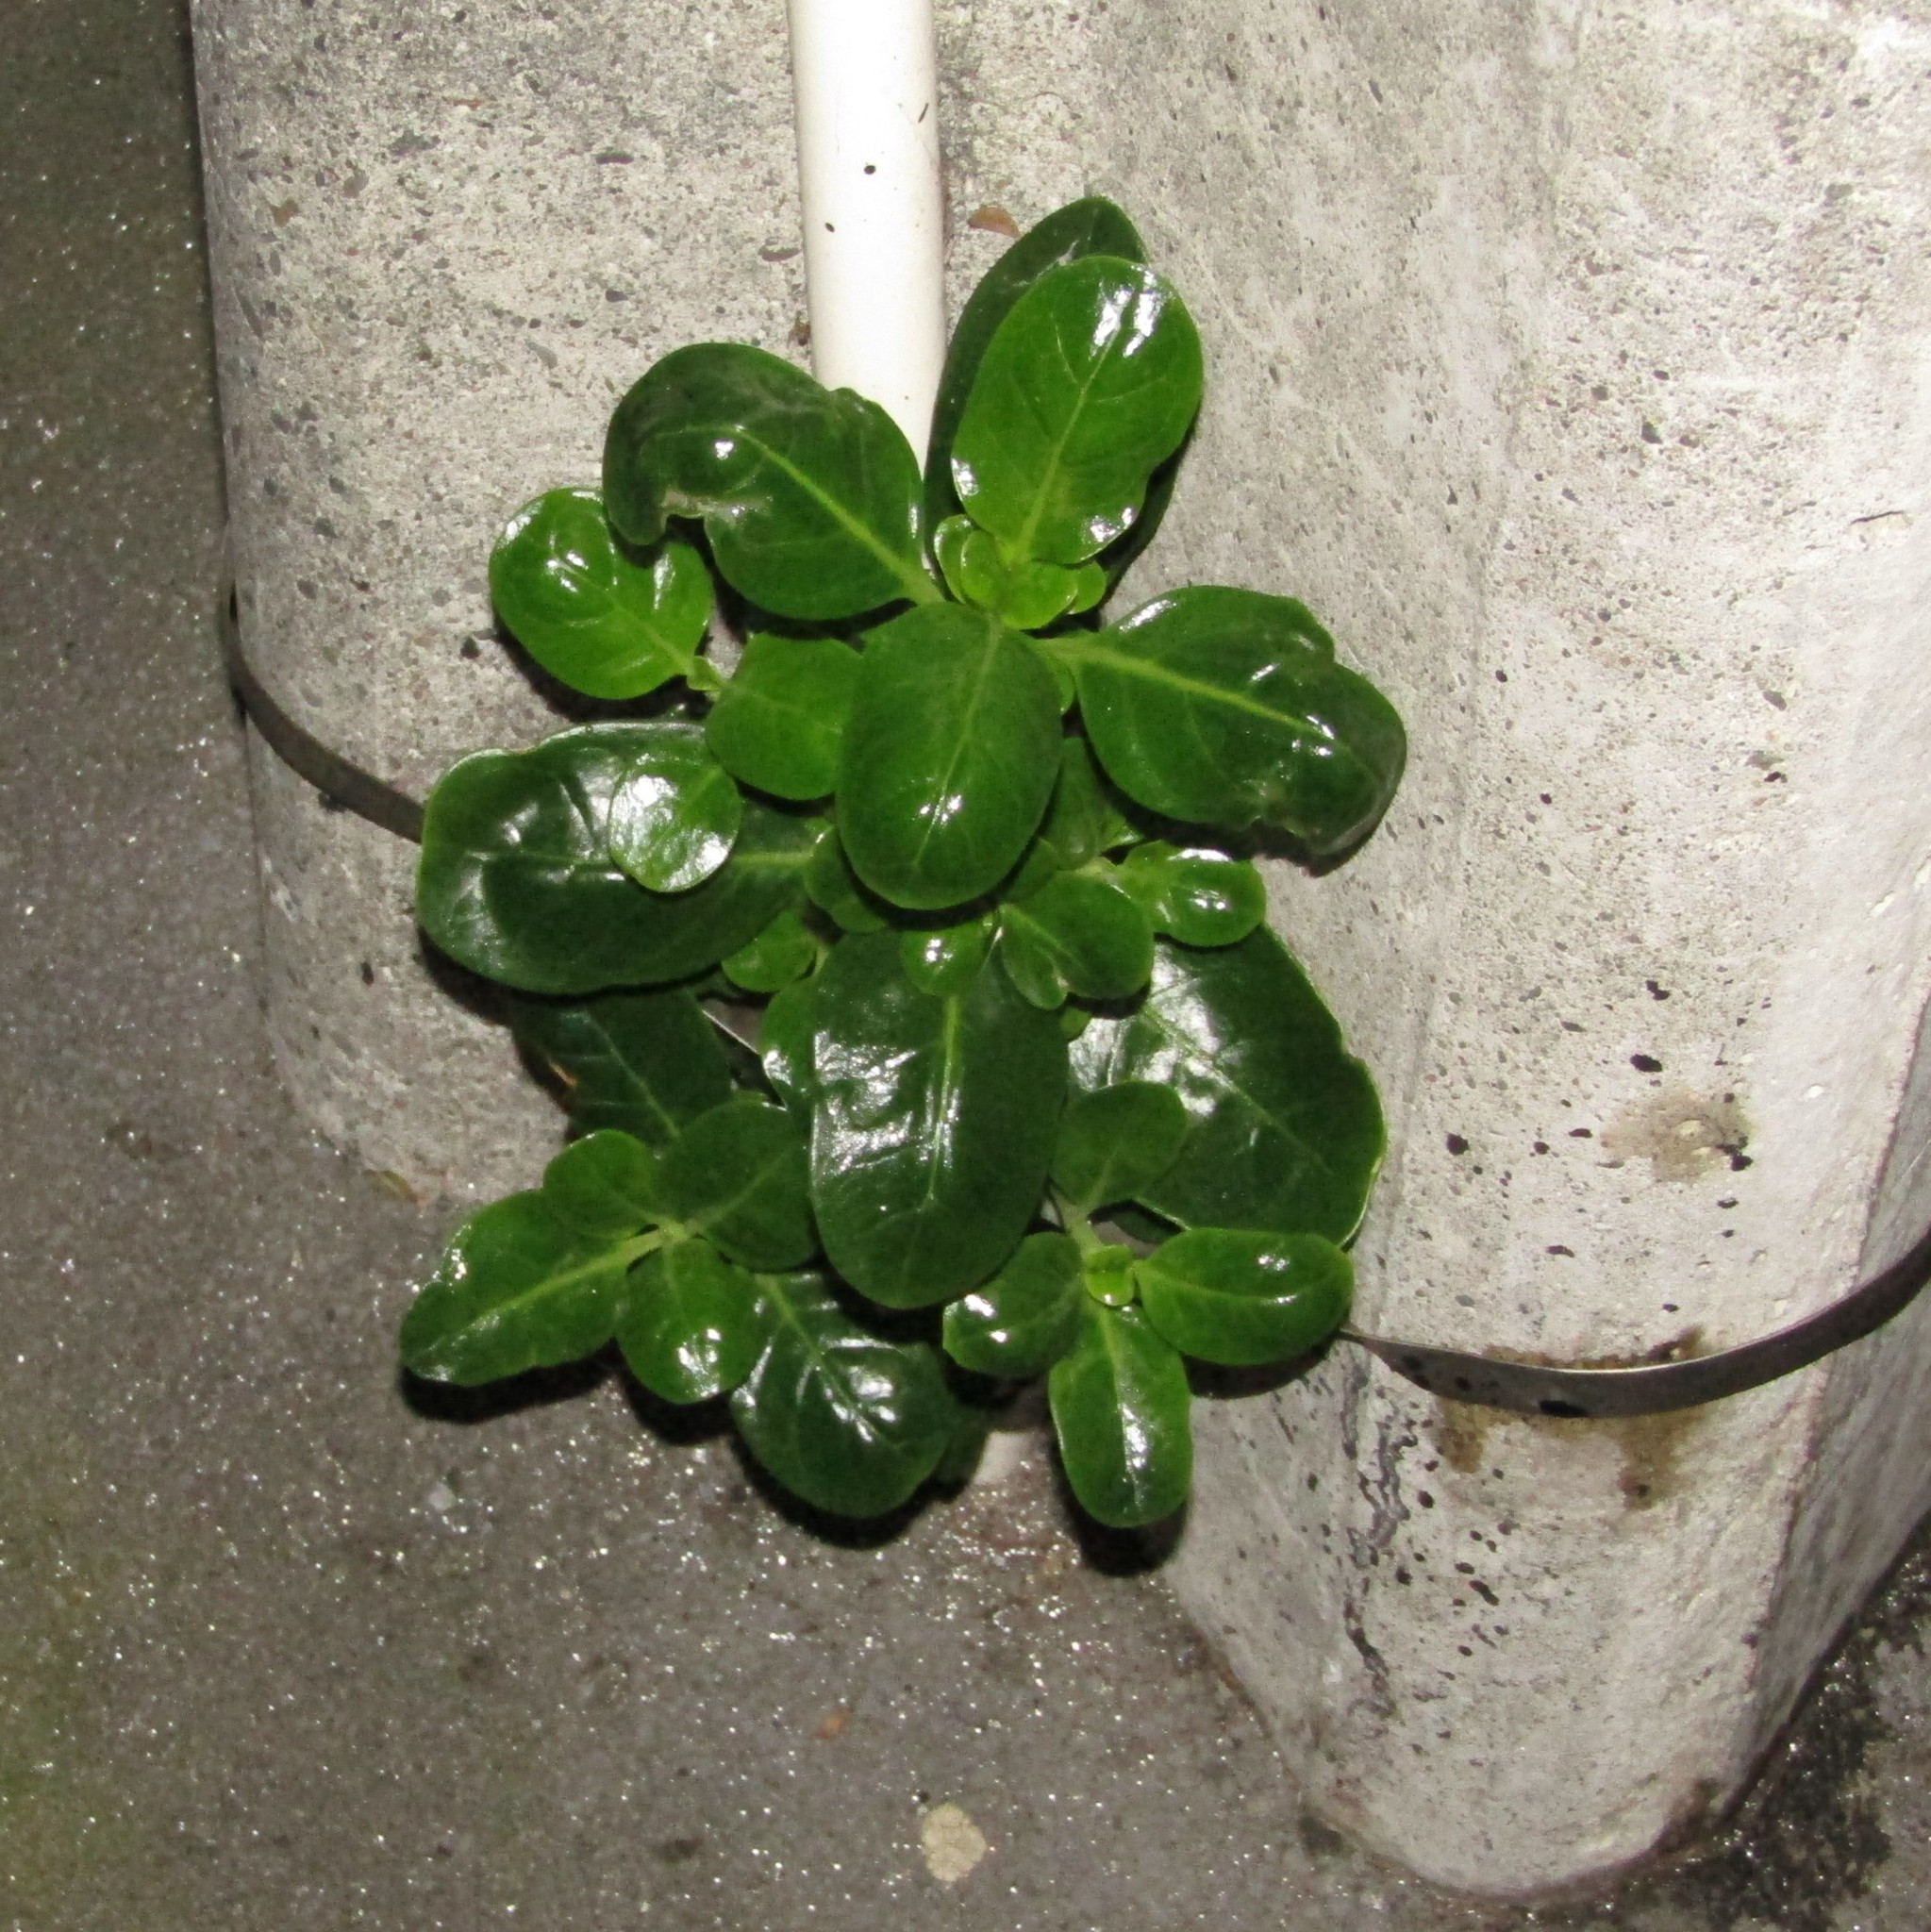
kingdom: Plantae
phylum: Tracheophyta
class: Magnoliopsida
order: Gentianales
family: Rubiaceae
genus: Coprosma
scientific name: Coprosma repens
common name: Tree bedstraw
